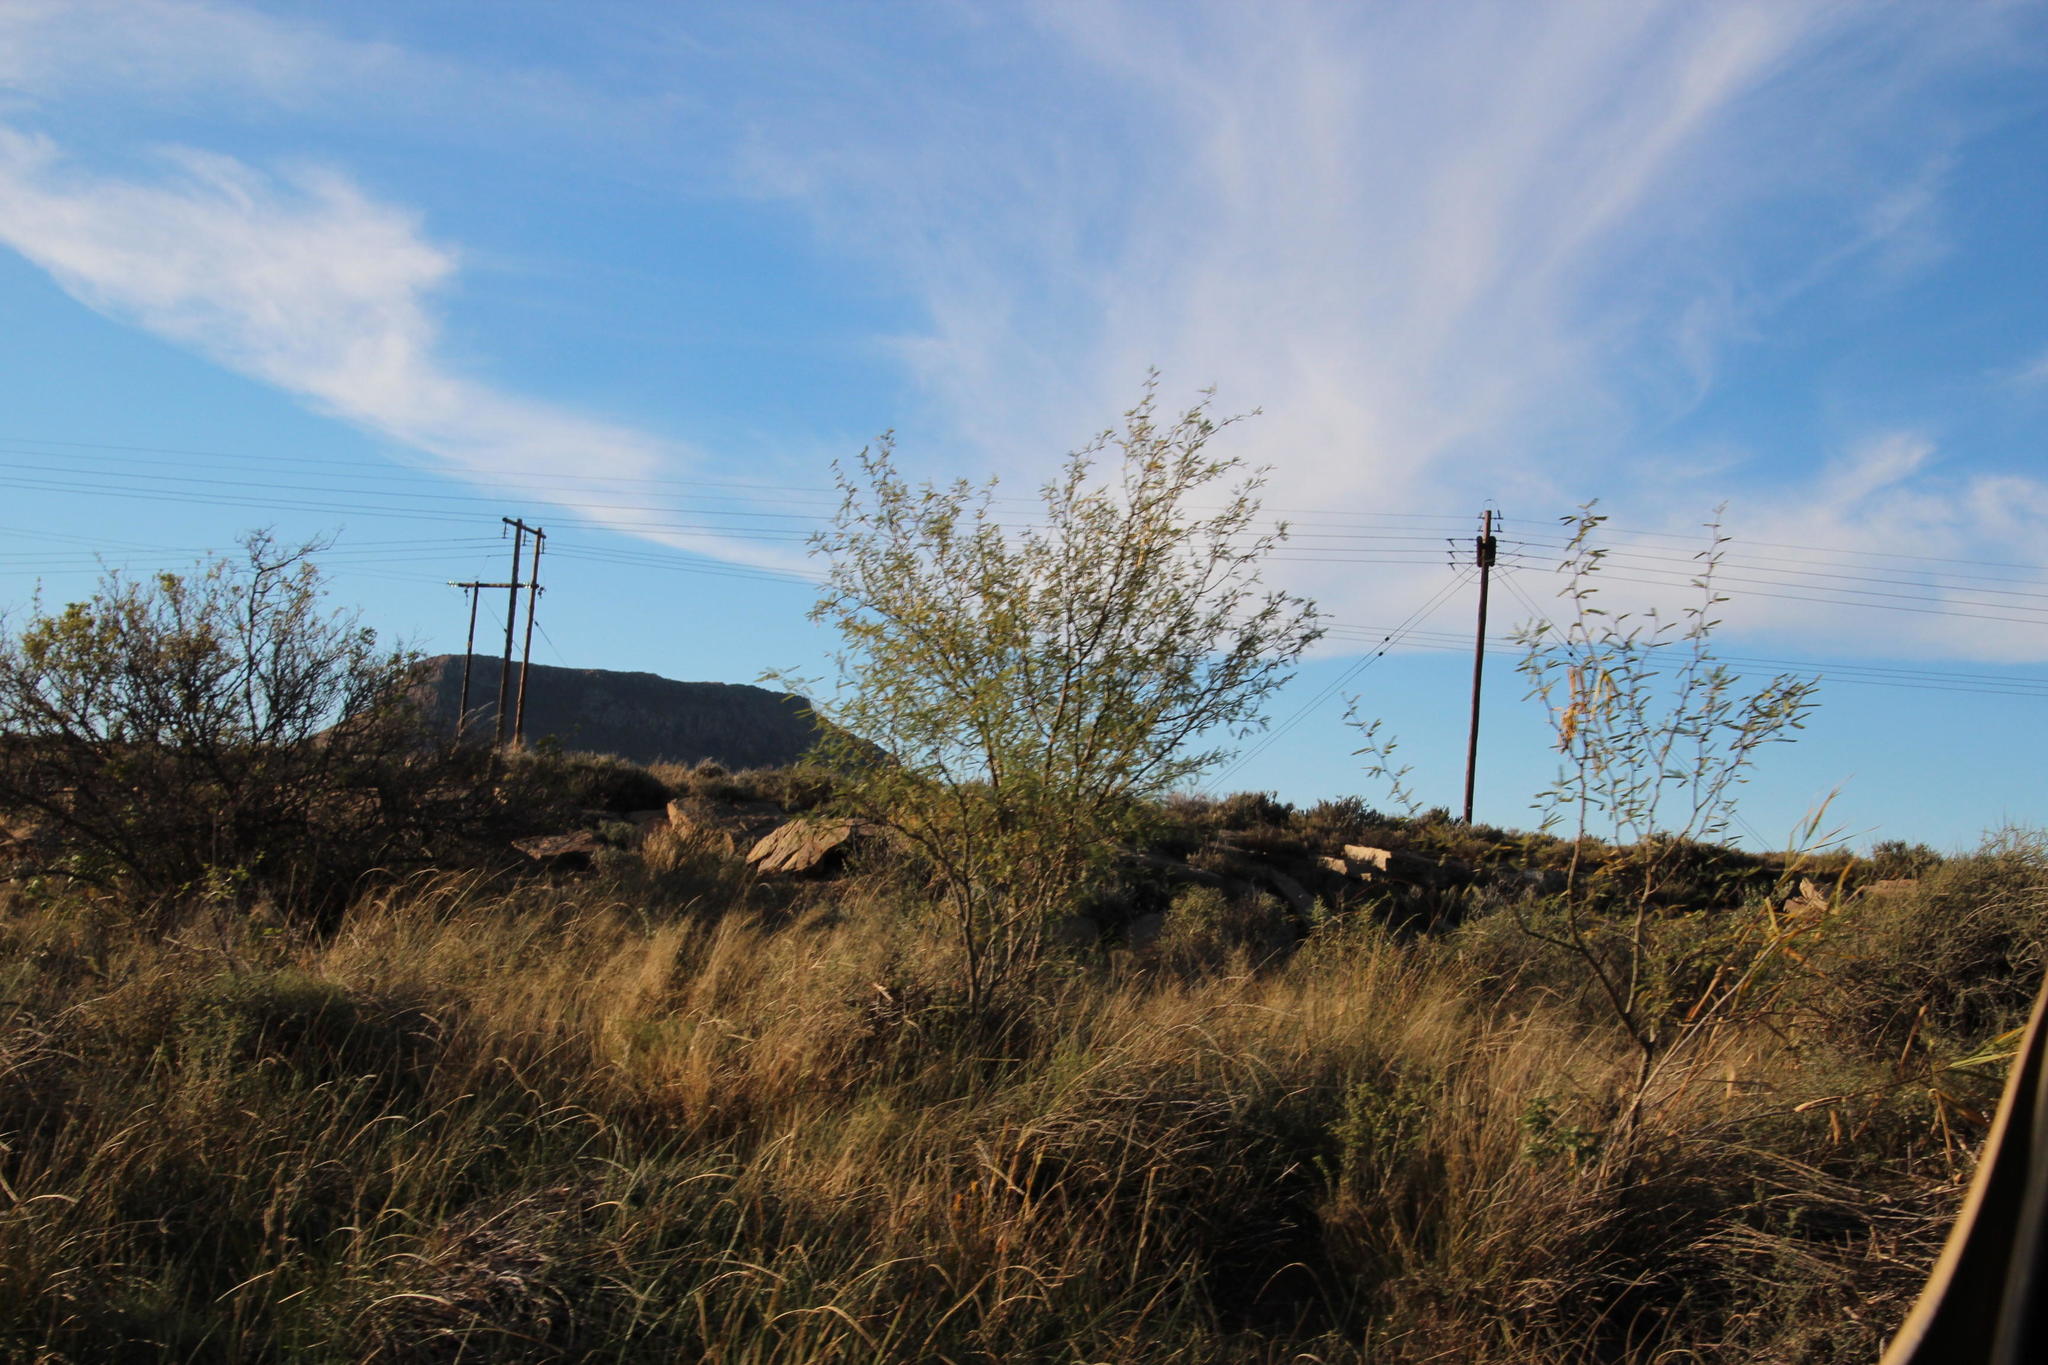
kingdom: Plantae
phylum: Tracheophyta
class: Magnoliopsida
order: Fabales
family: Fabaceae
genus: Prosopis
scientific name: Prosopis pubescens
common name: Screw-bean
